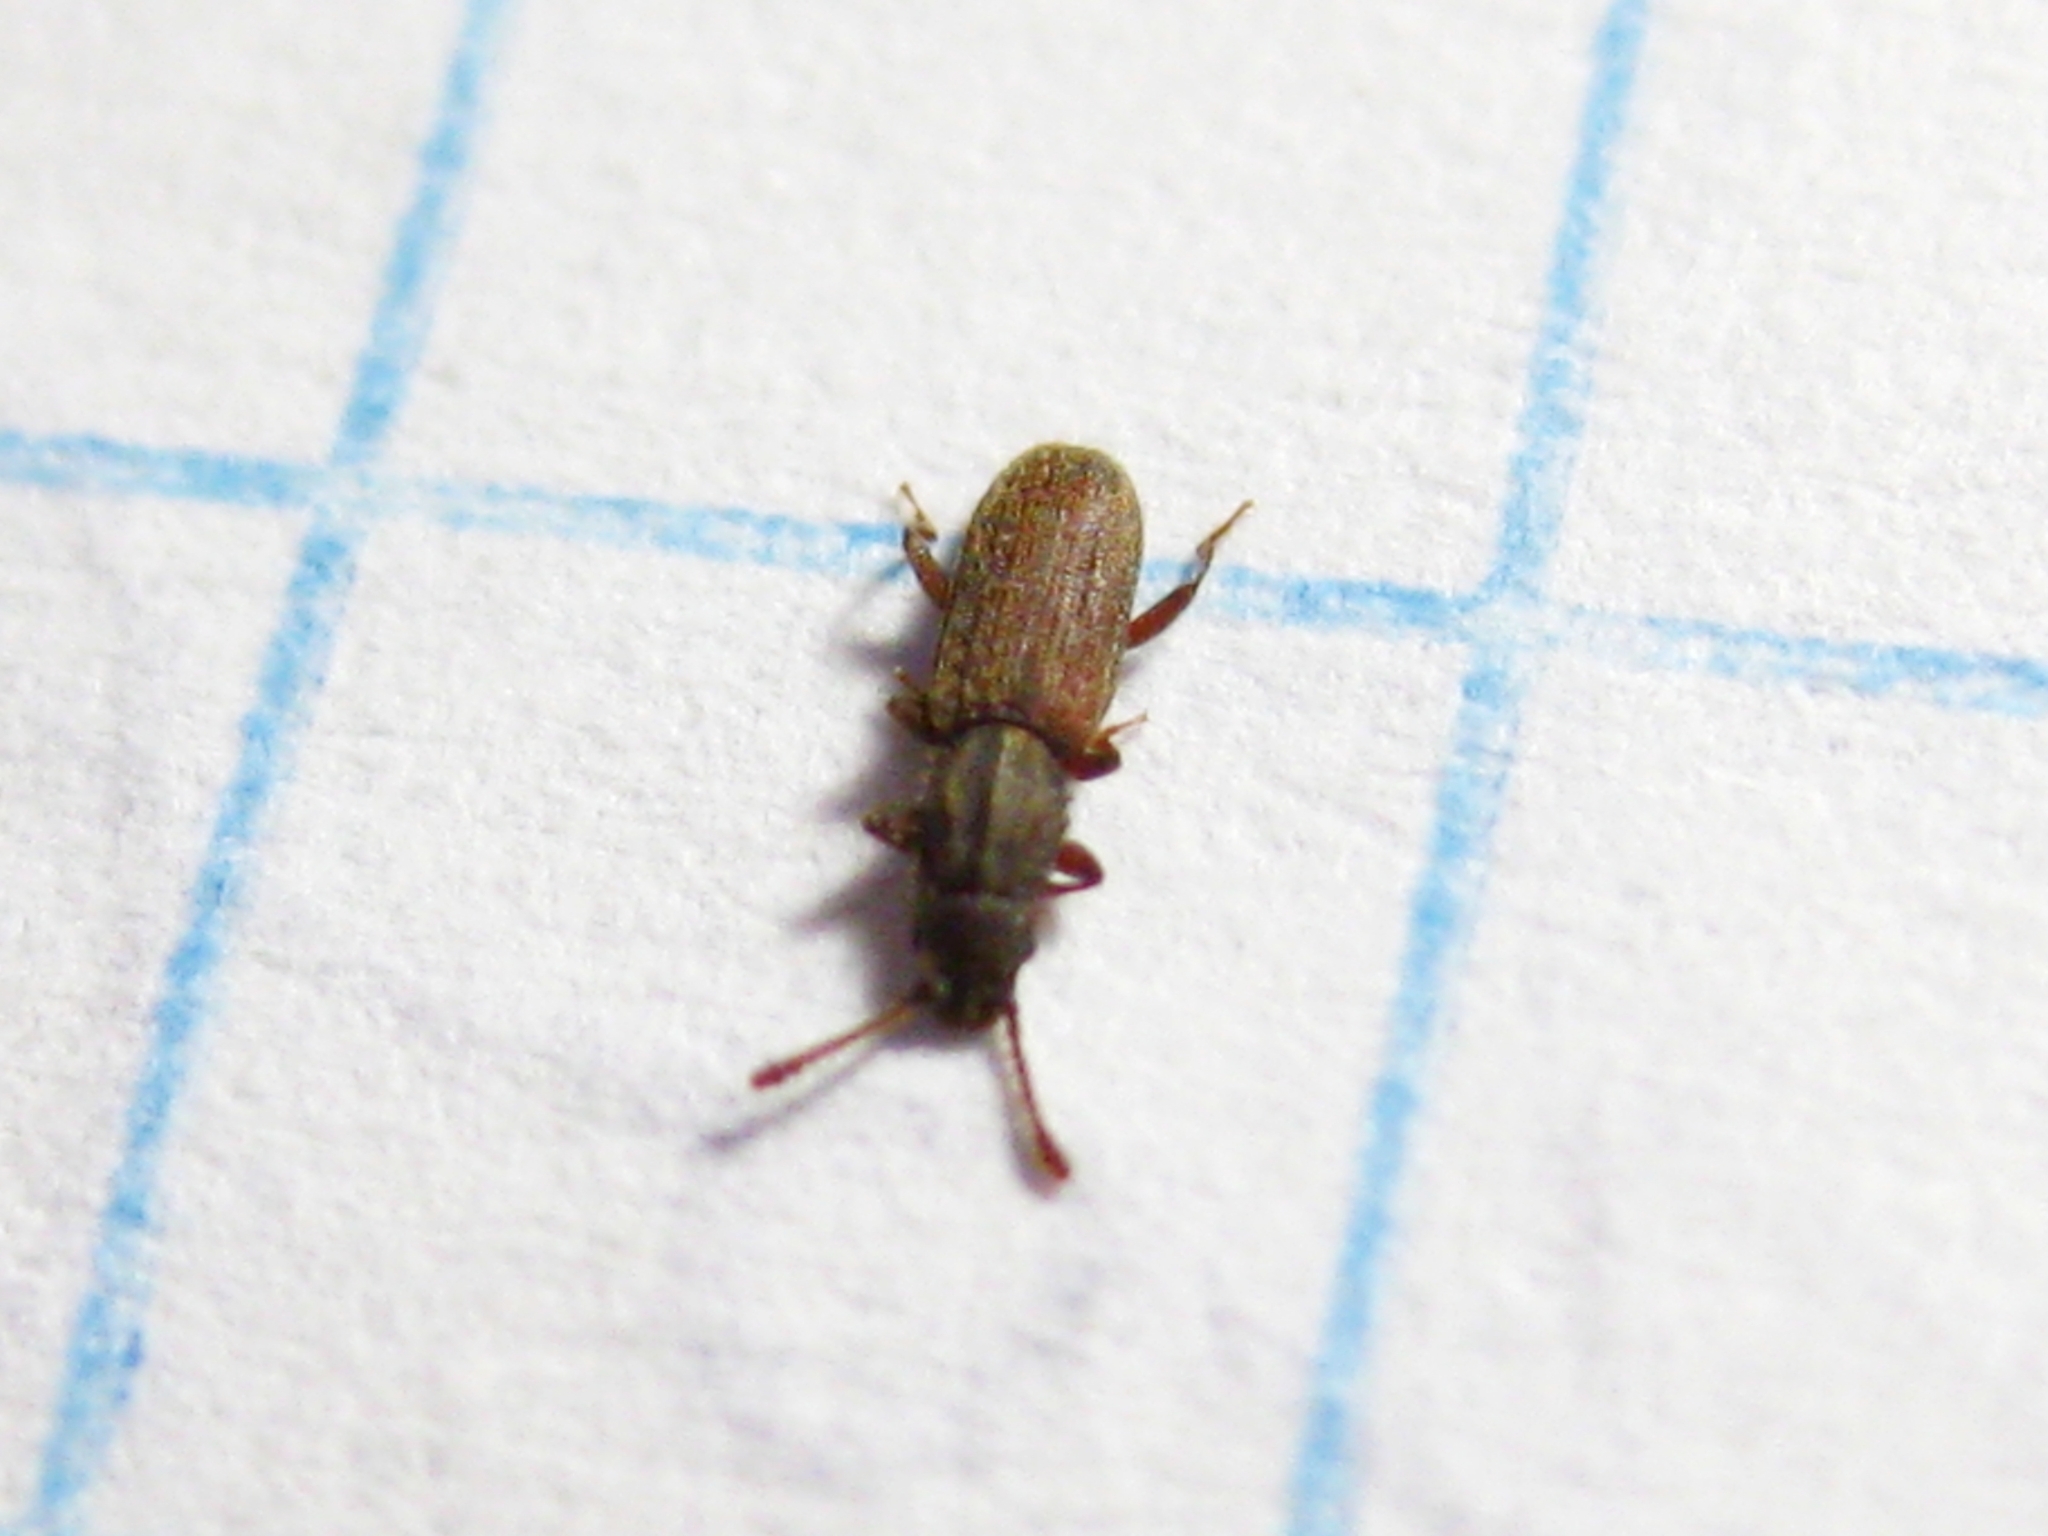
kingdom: Animalia
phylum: Arthropoda
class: Insecta
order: Coleoptera
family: Silvanidae
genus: Oryzaephilus
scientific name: Oryzaephilus surinamensis
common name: Sawtoothed grain beetle
